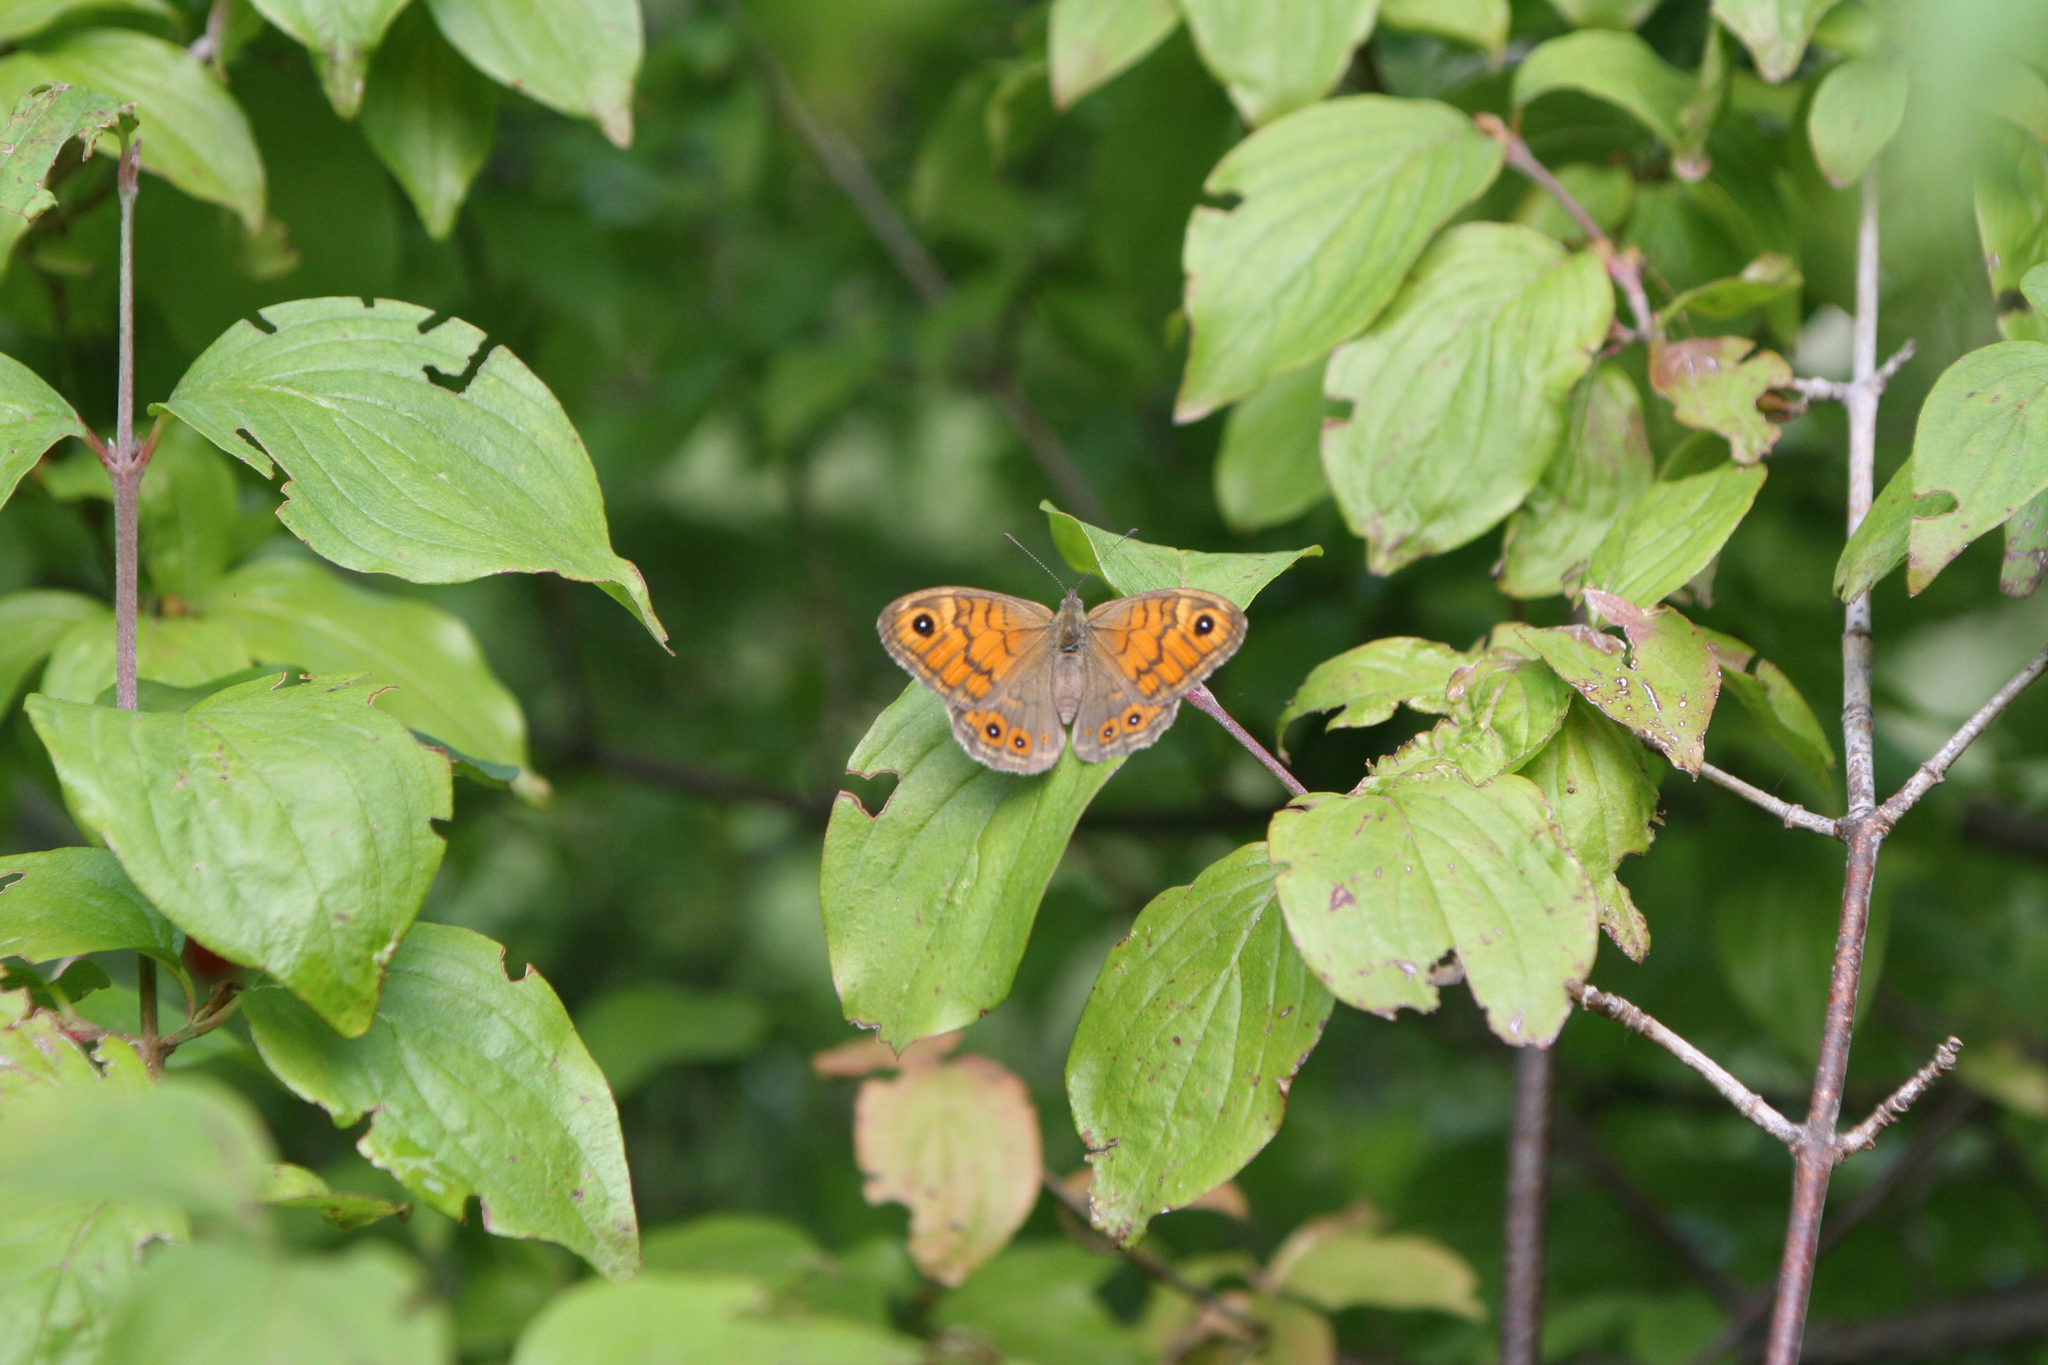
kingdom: Animalia
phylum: Arthropoda
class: Insecta
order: Lepidoptera
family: Nymphalidae
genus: Pararge
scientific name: Pararge Lasiommata megera
